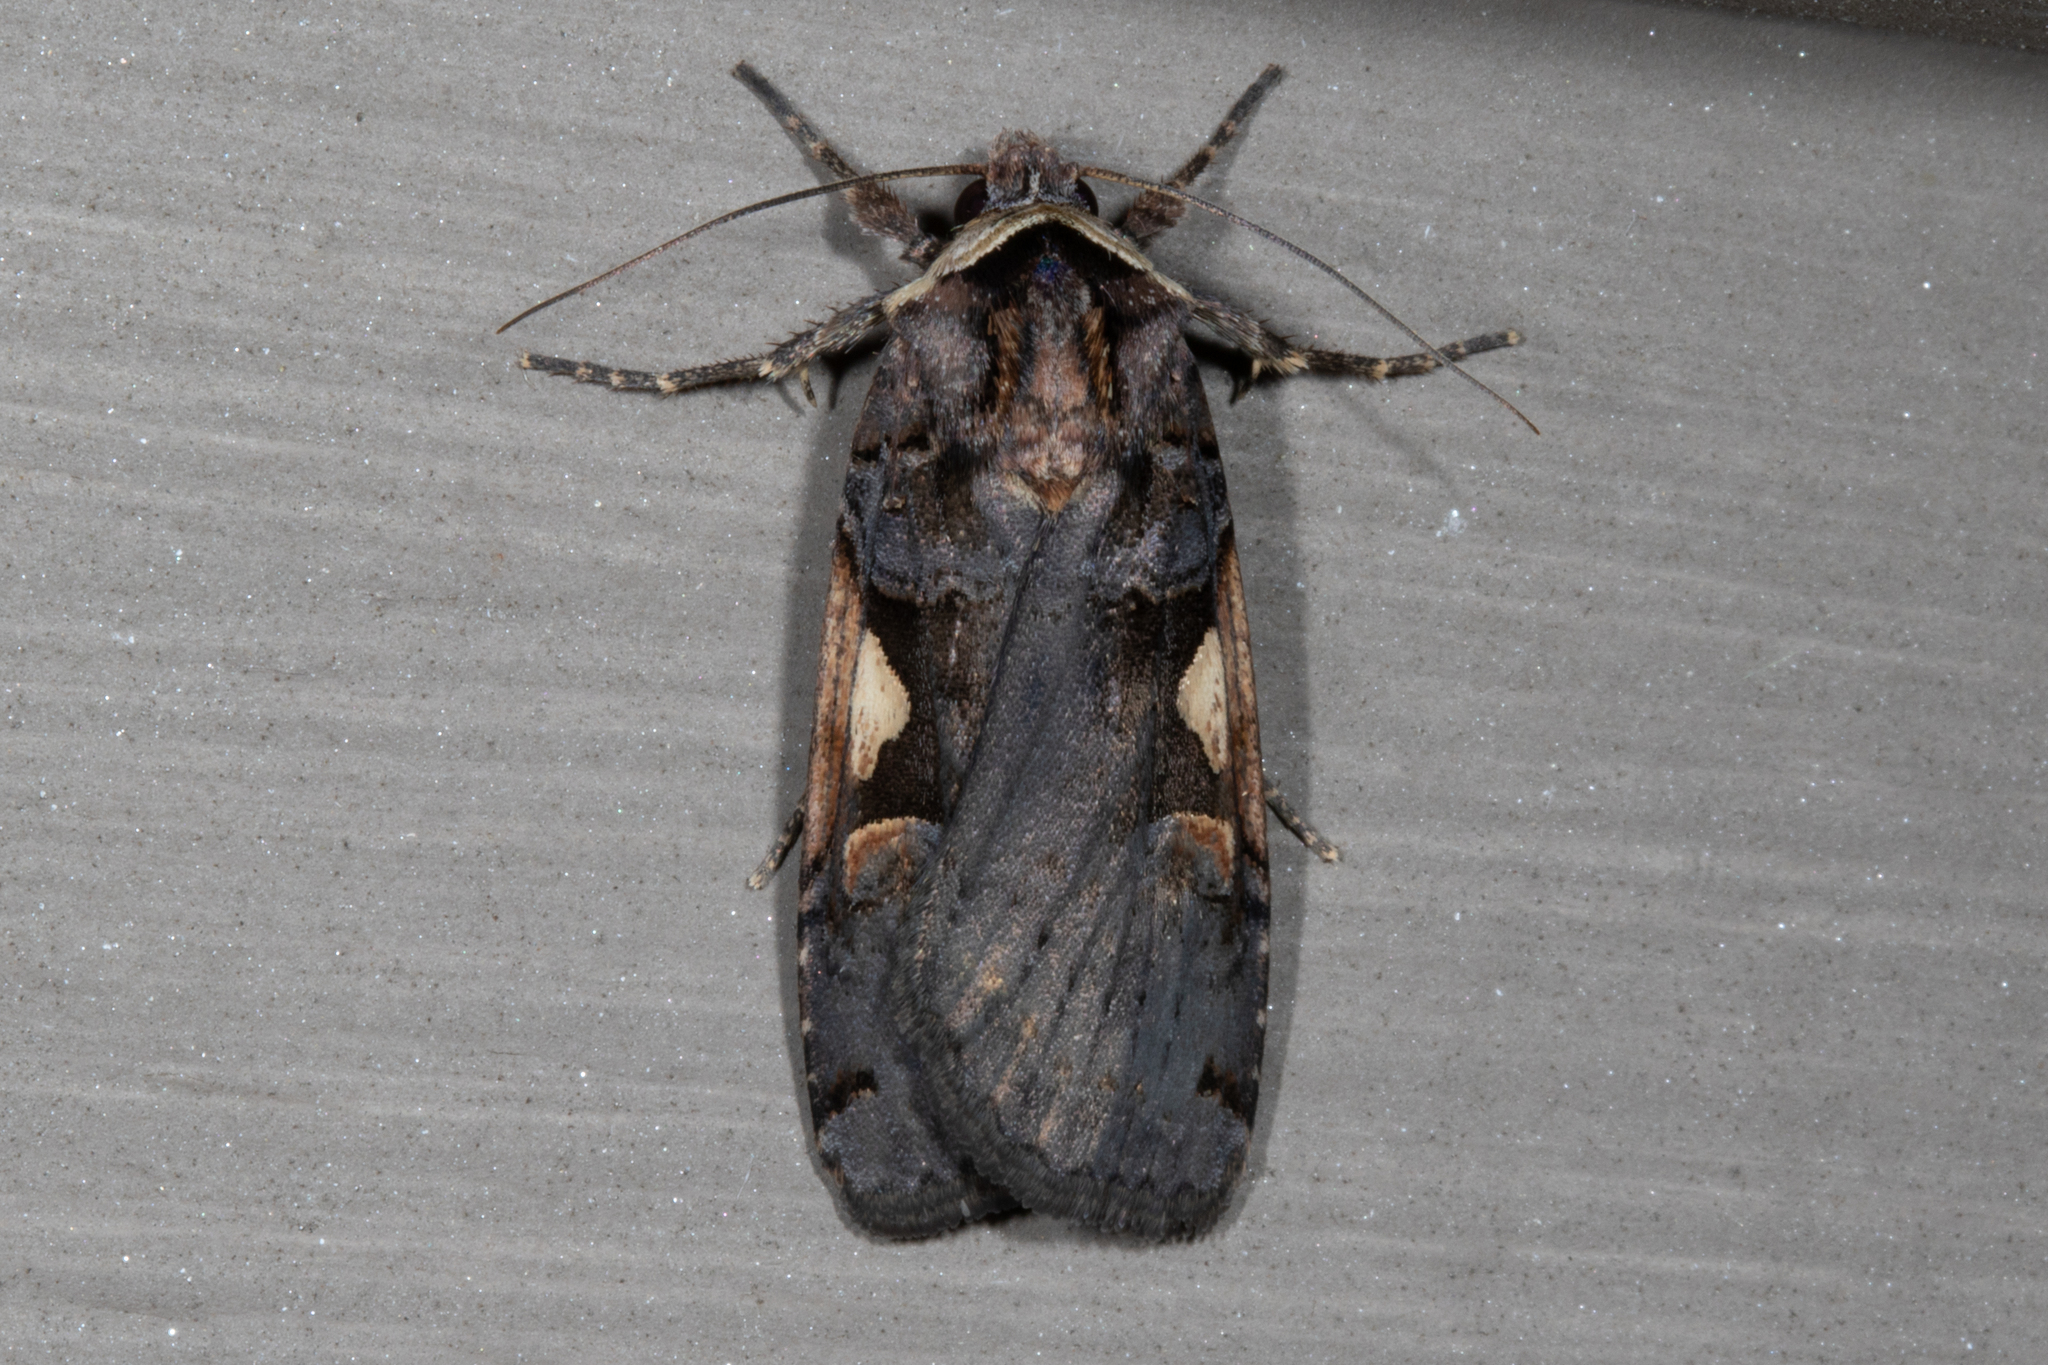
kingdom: Animalia
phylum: Arthropoda
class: Insecta
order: Lepidoptera
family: Noctuidae
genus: Xestia
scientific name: Xestia dolosa
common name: Cutworm moth
